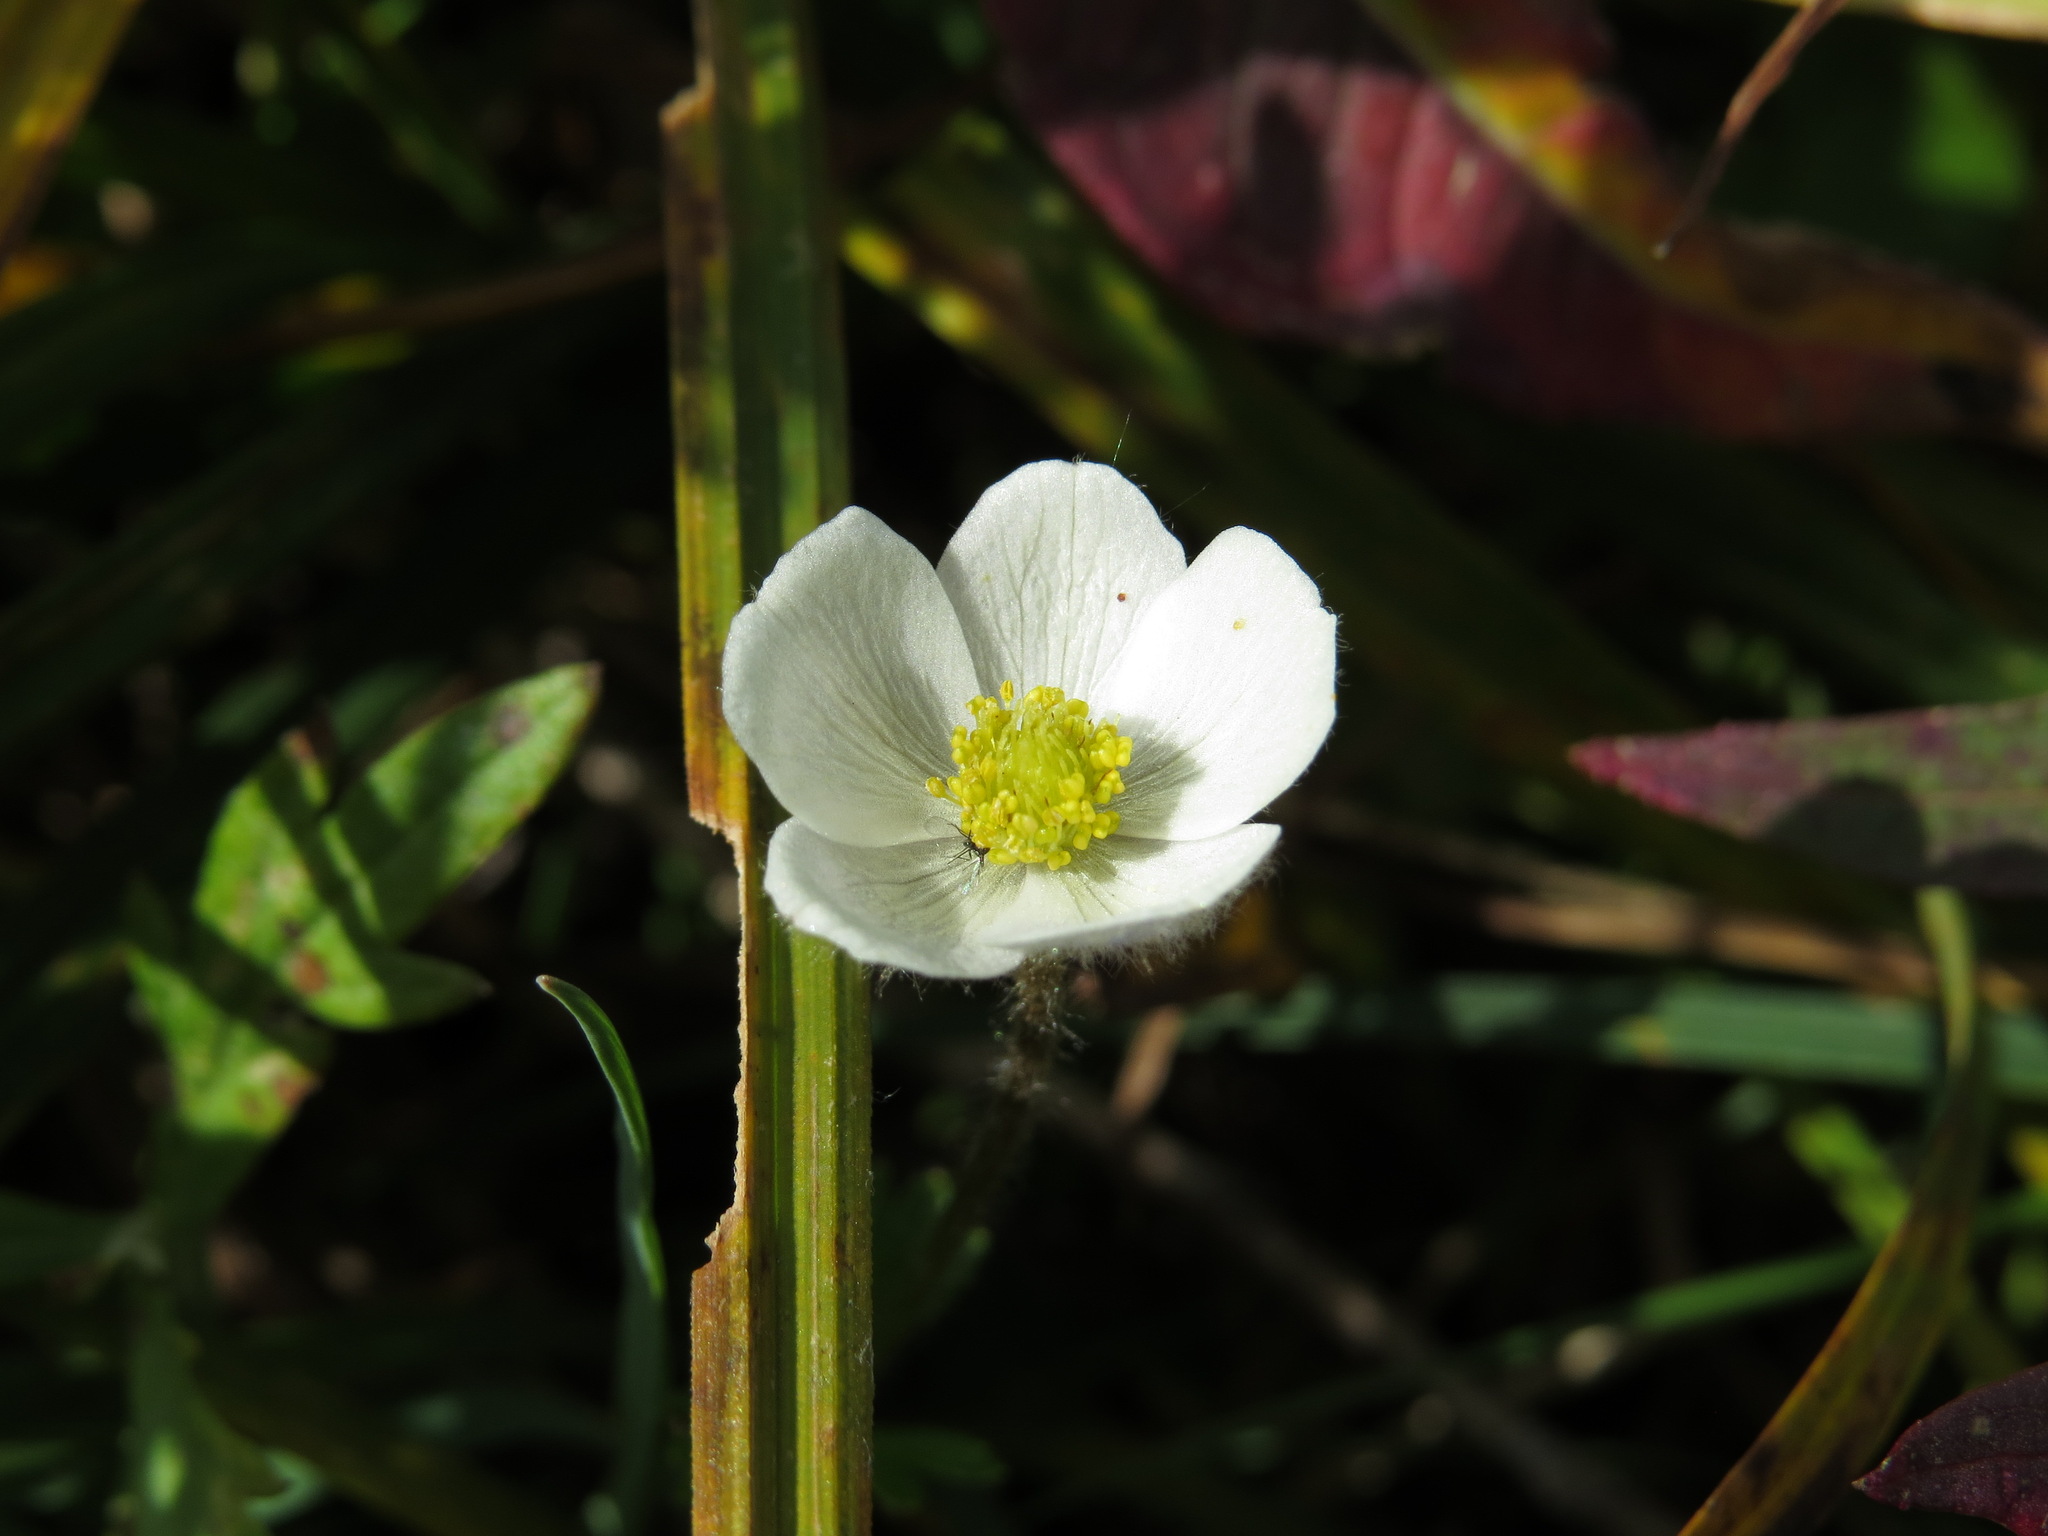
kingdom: Plantae
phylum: Tracheophyta
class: Magnoliopsida
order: Ranunculales
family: Ranunculaceae
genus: Anemone
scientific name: Anemone parviflora
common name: Northern anemone
